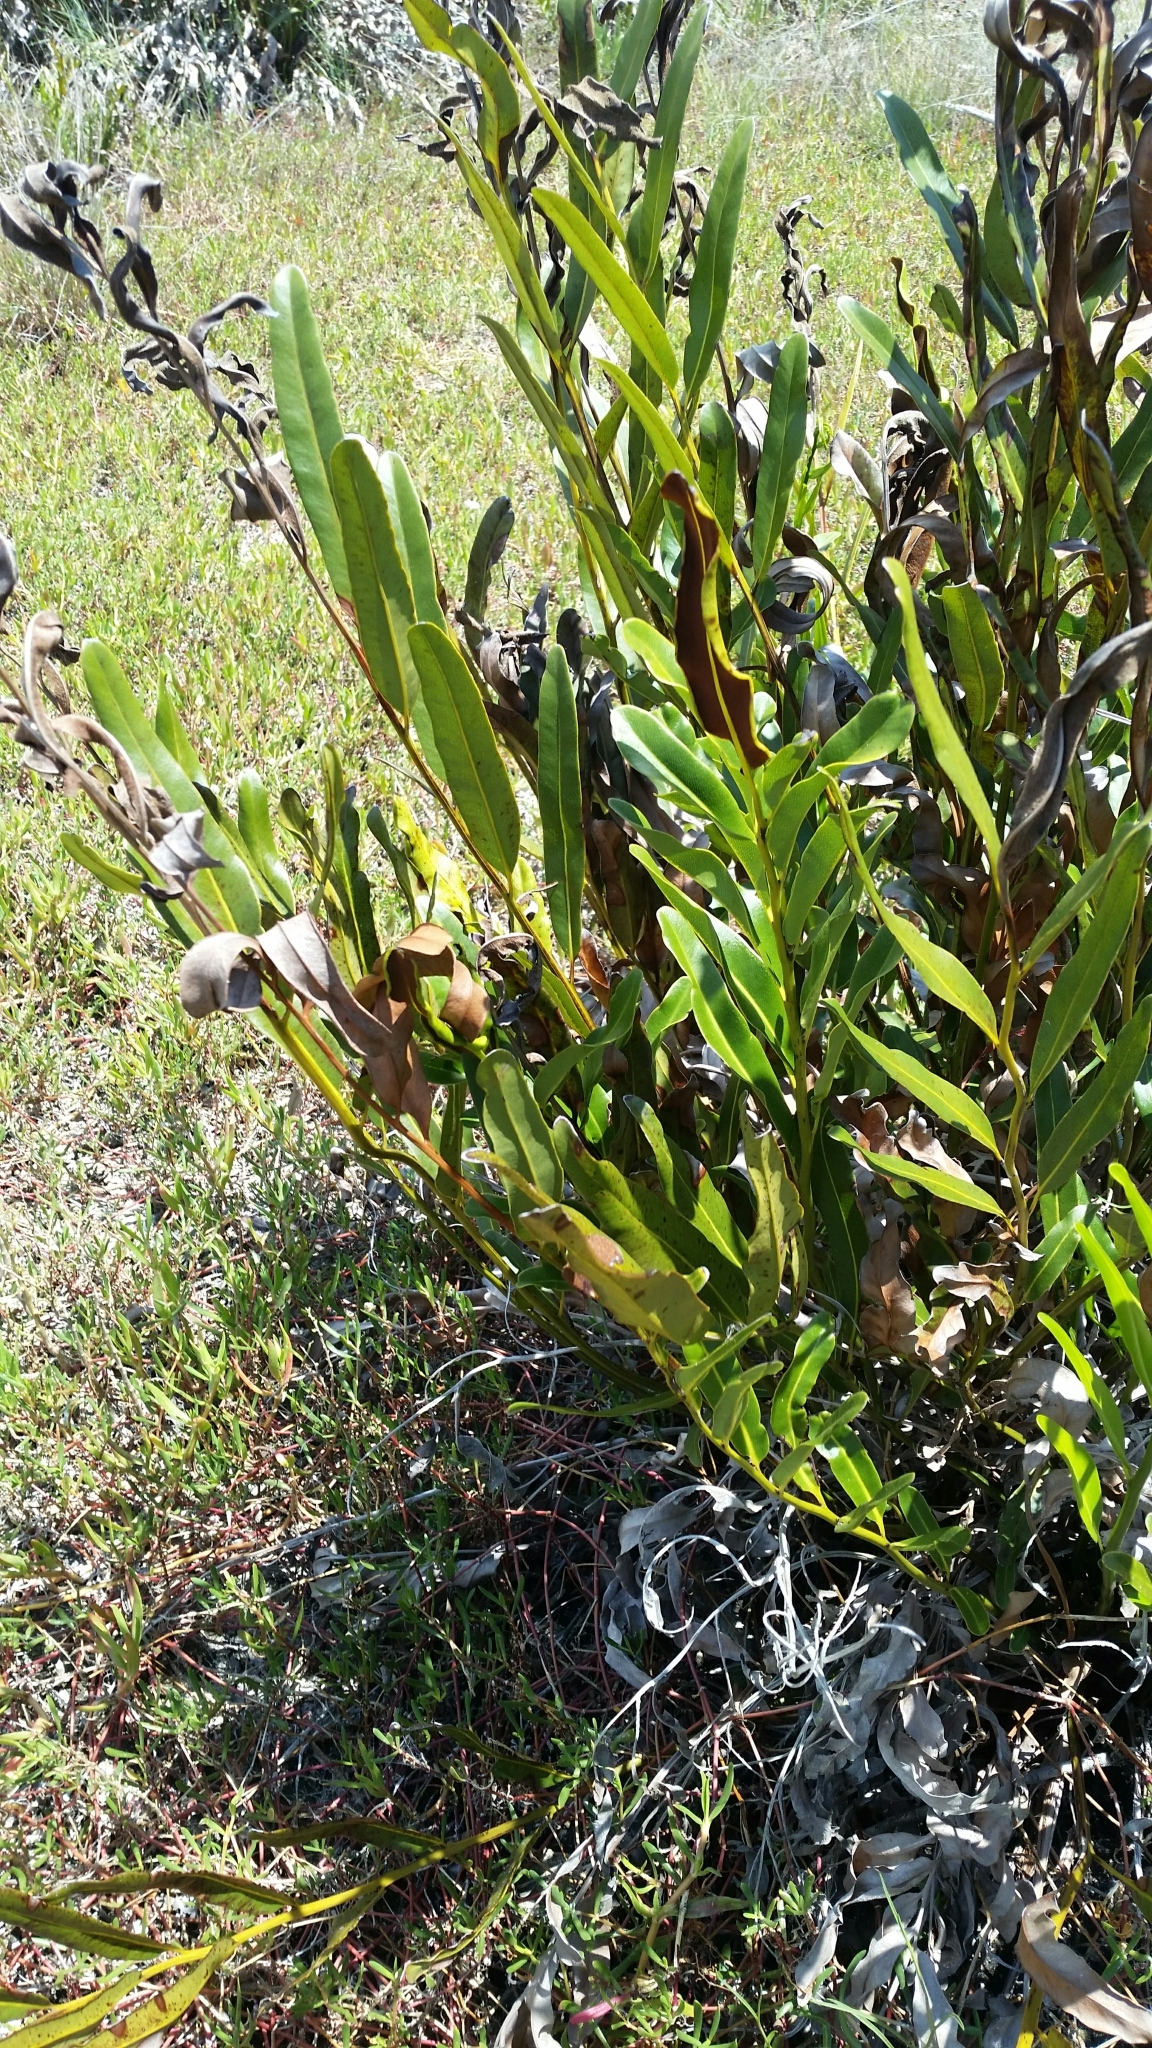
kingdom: Plantae
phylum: Tracheophyta
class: Polypodiopsida
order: Polypodiales
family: Pteridaceae
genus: Acrostichum
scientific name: Acrostichum aureum
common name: Leather fern
